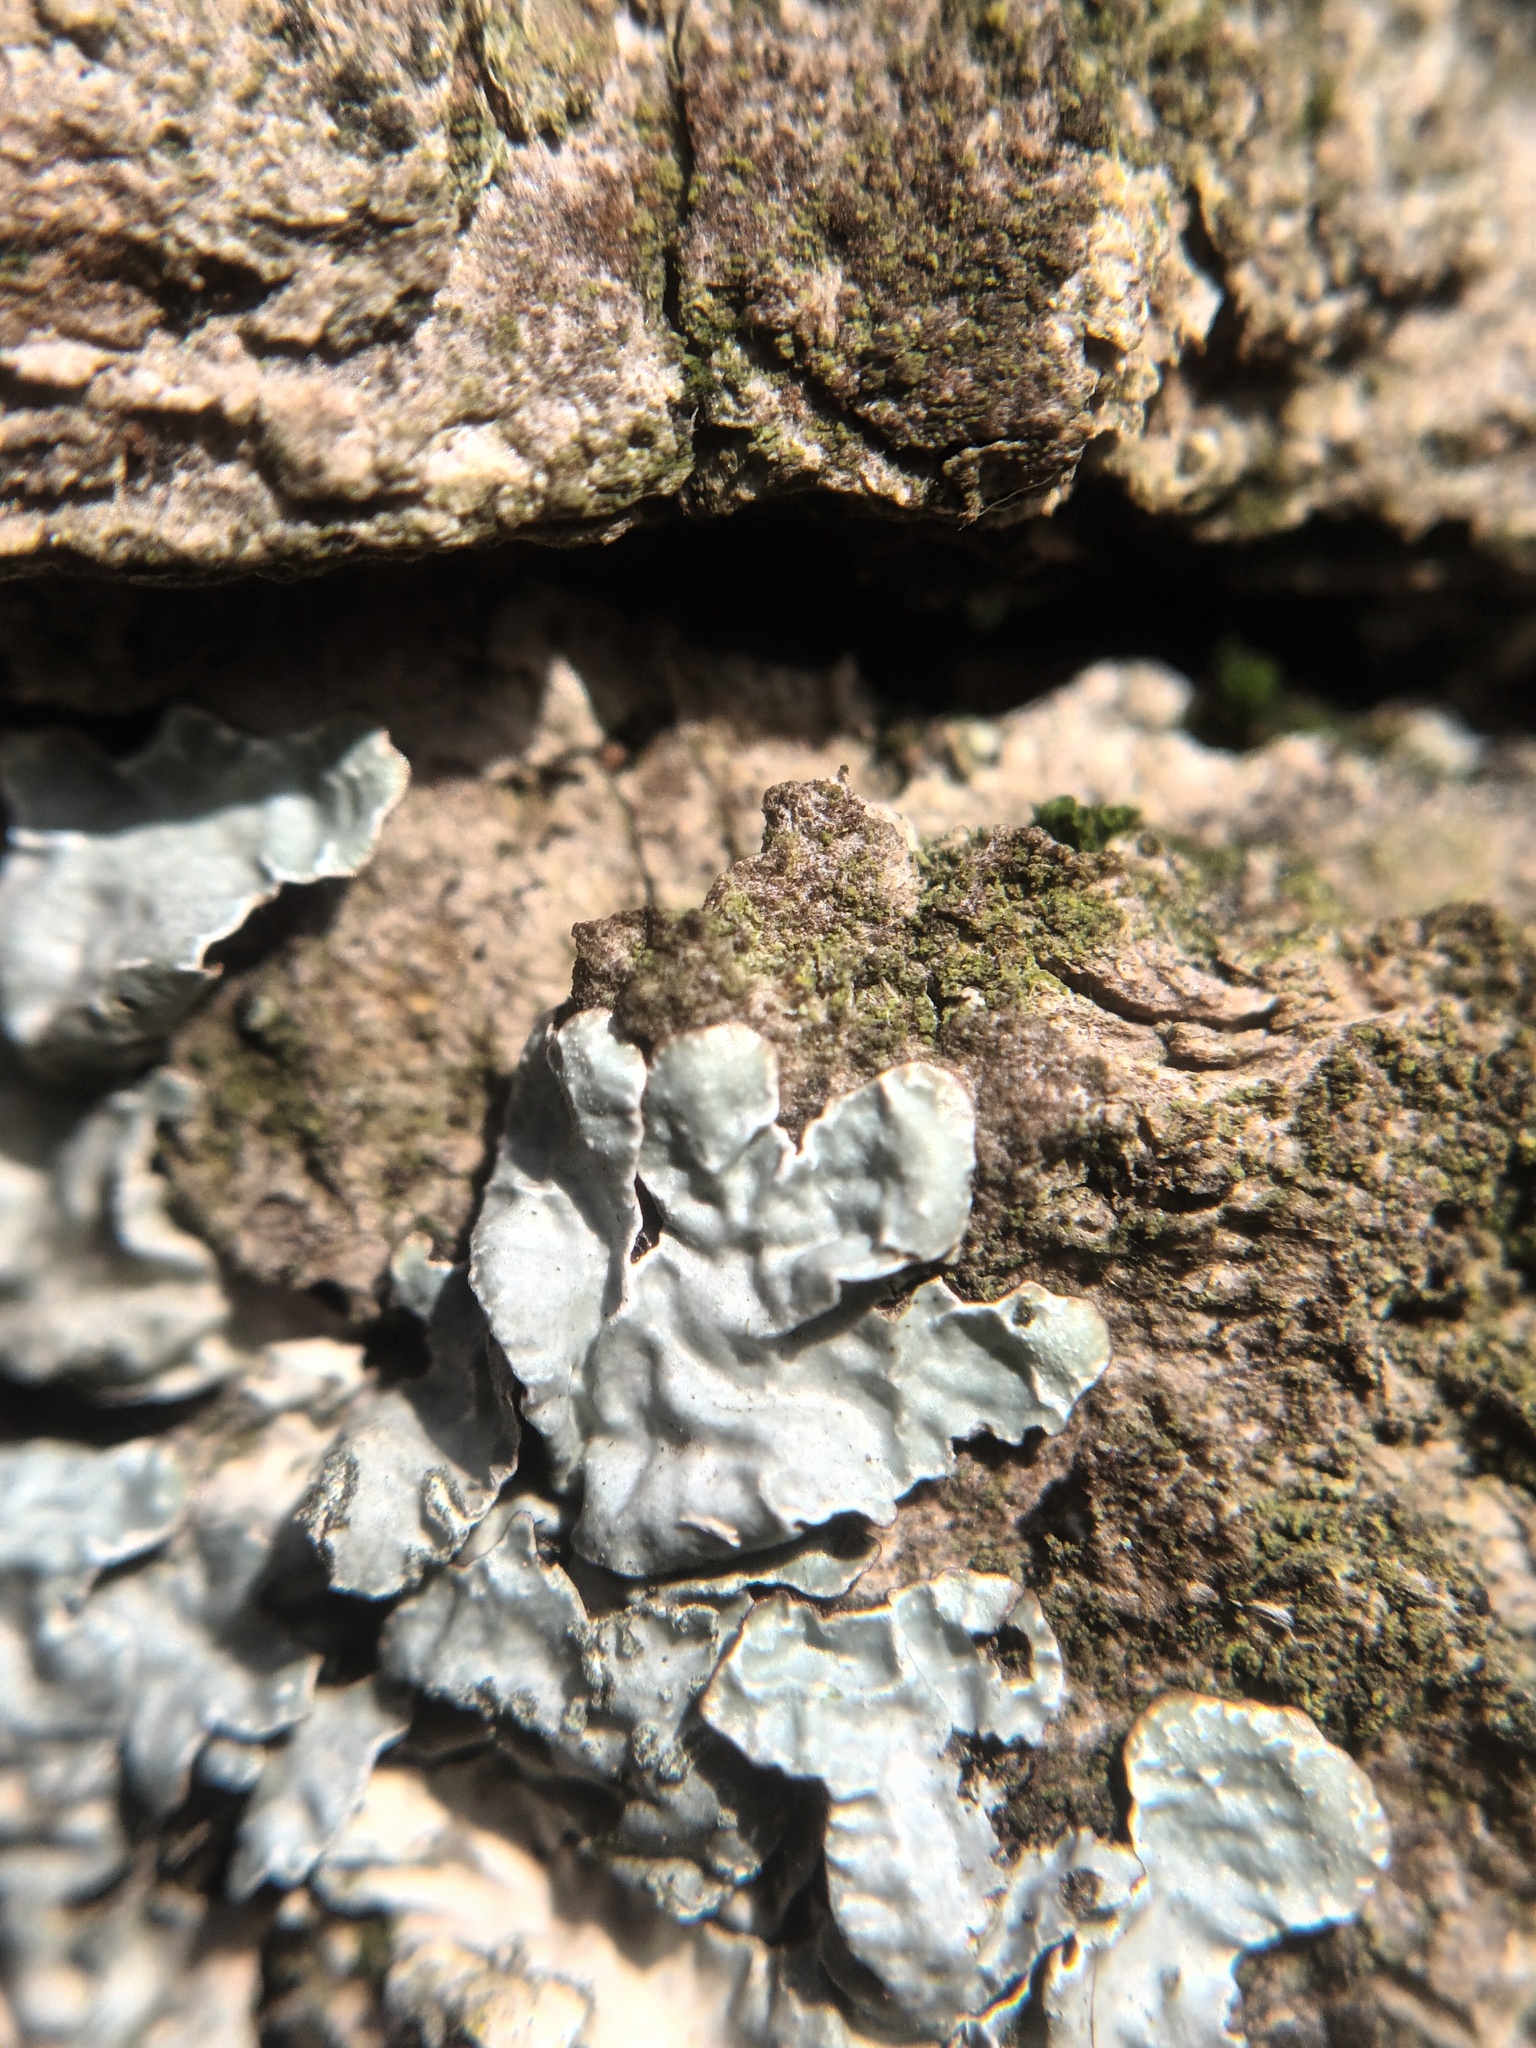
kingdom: Fungi
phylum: Ascomycota
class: Lecanoromycetes
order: Lecanorales
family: Parmeliaceae
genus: Parmelia
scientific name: Parmelia sulcata
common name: Netted shield lichen
